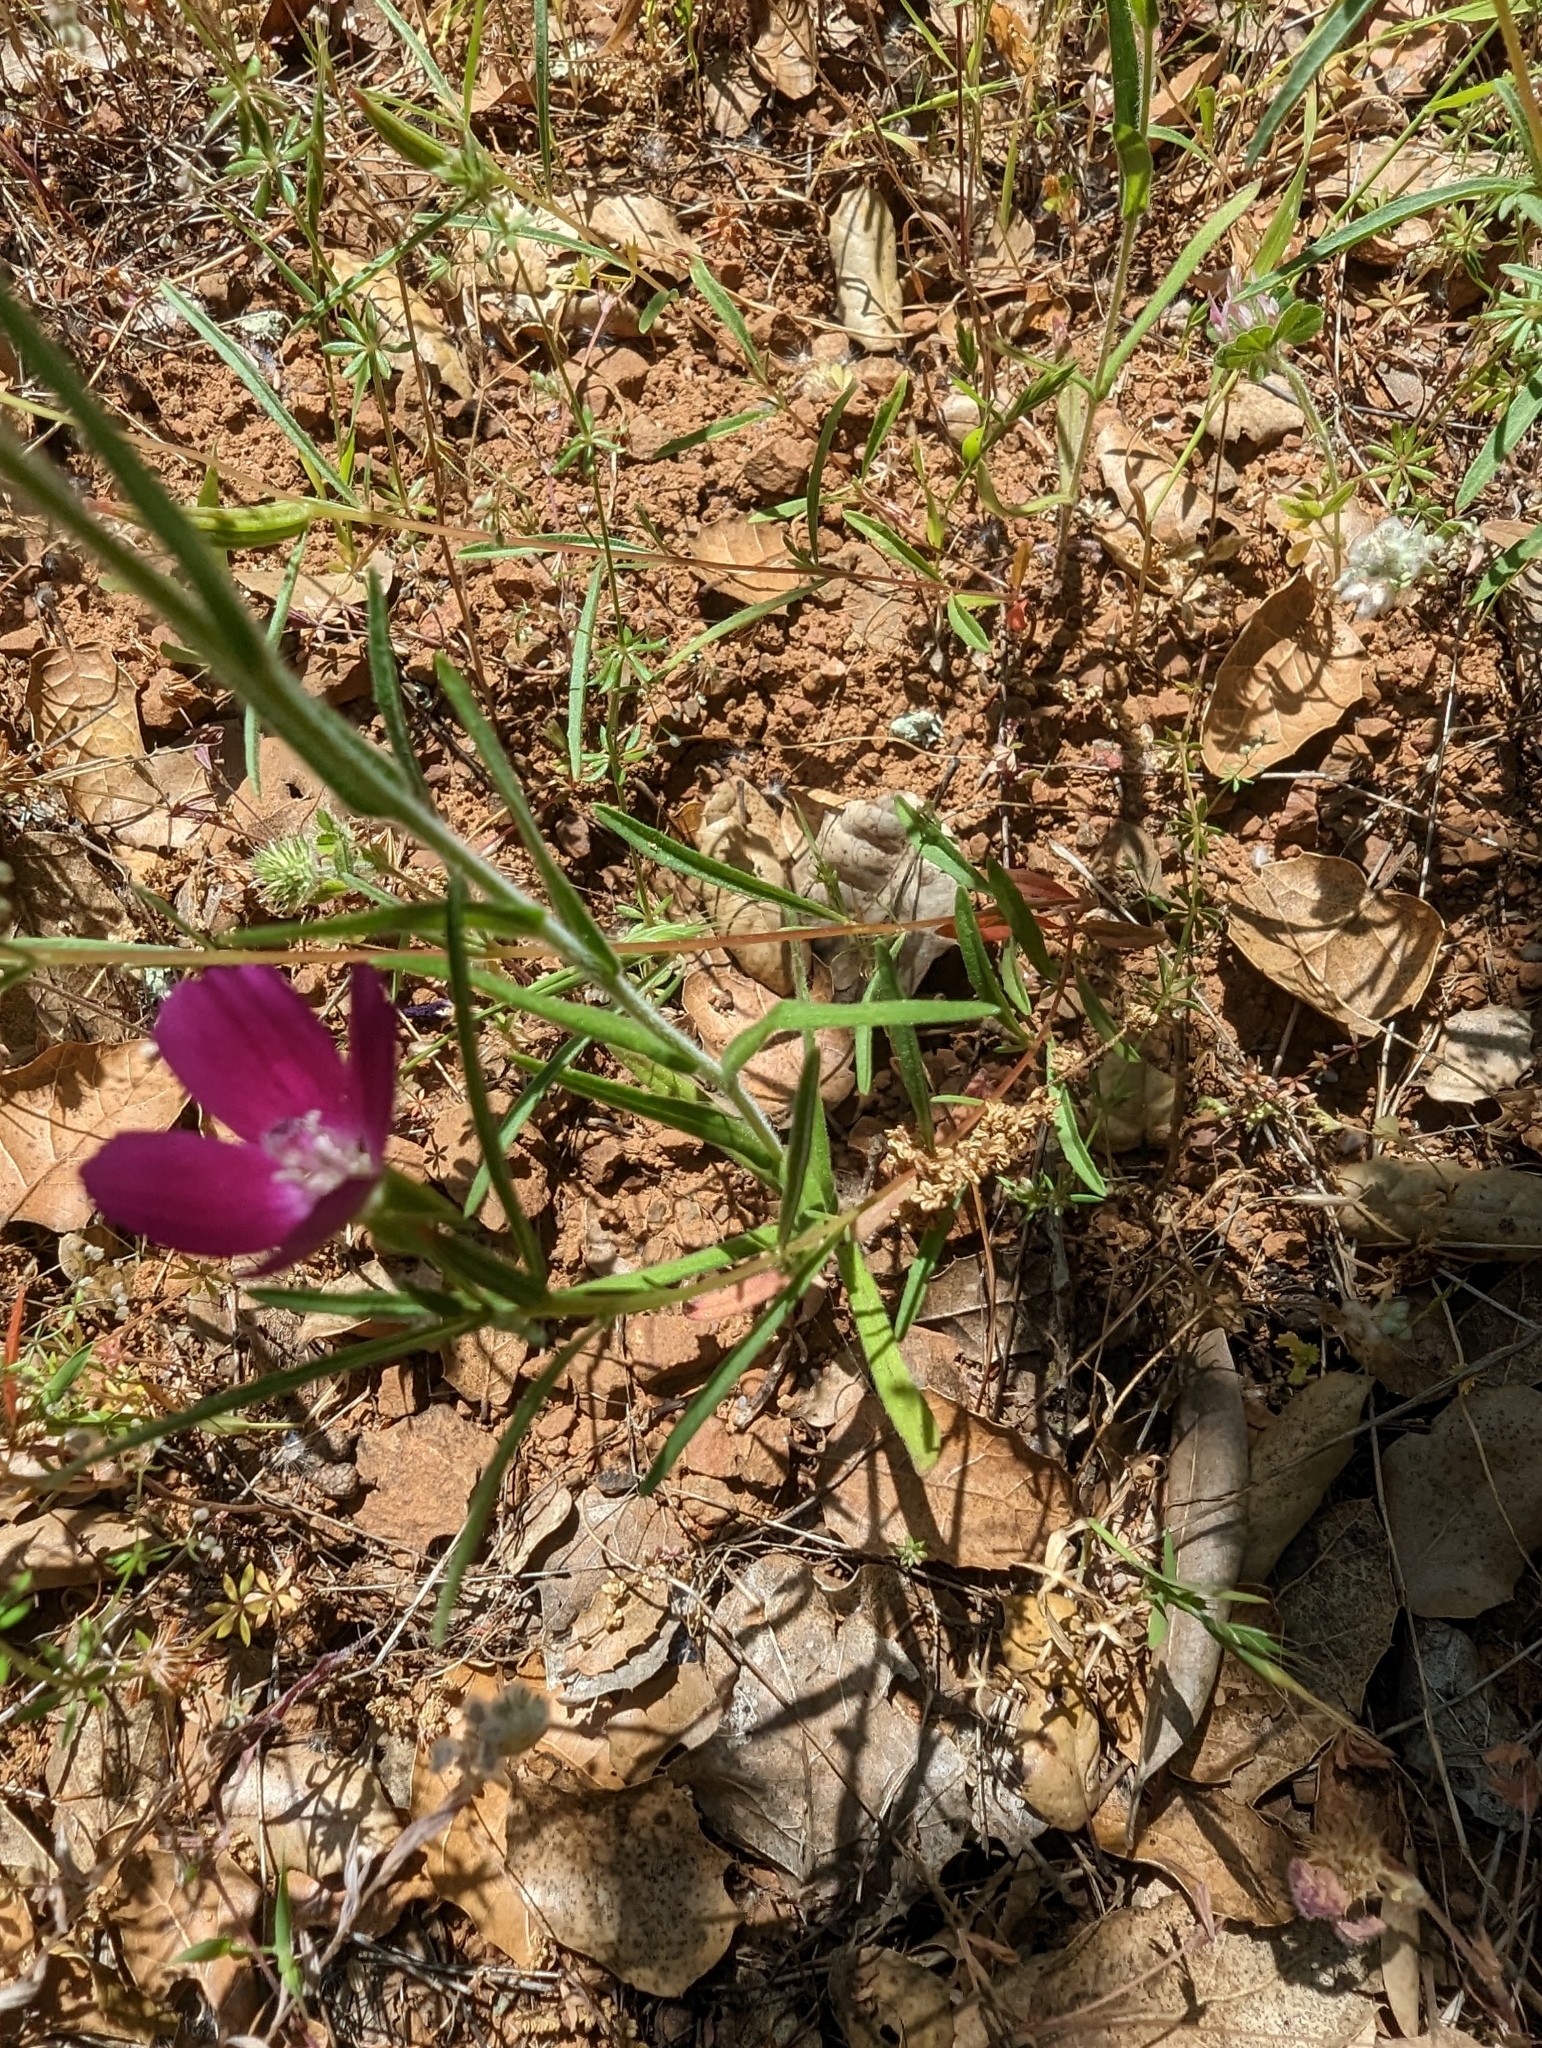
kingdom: Plantae
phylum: Tracheophyta
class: Magnoliopsida
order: Myrtales
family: Onagraceae
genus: Clarkia
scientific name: Clarkia purpurea
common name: Purple clarkia
